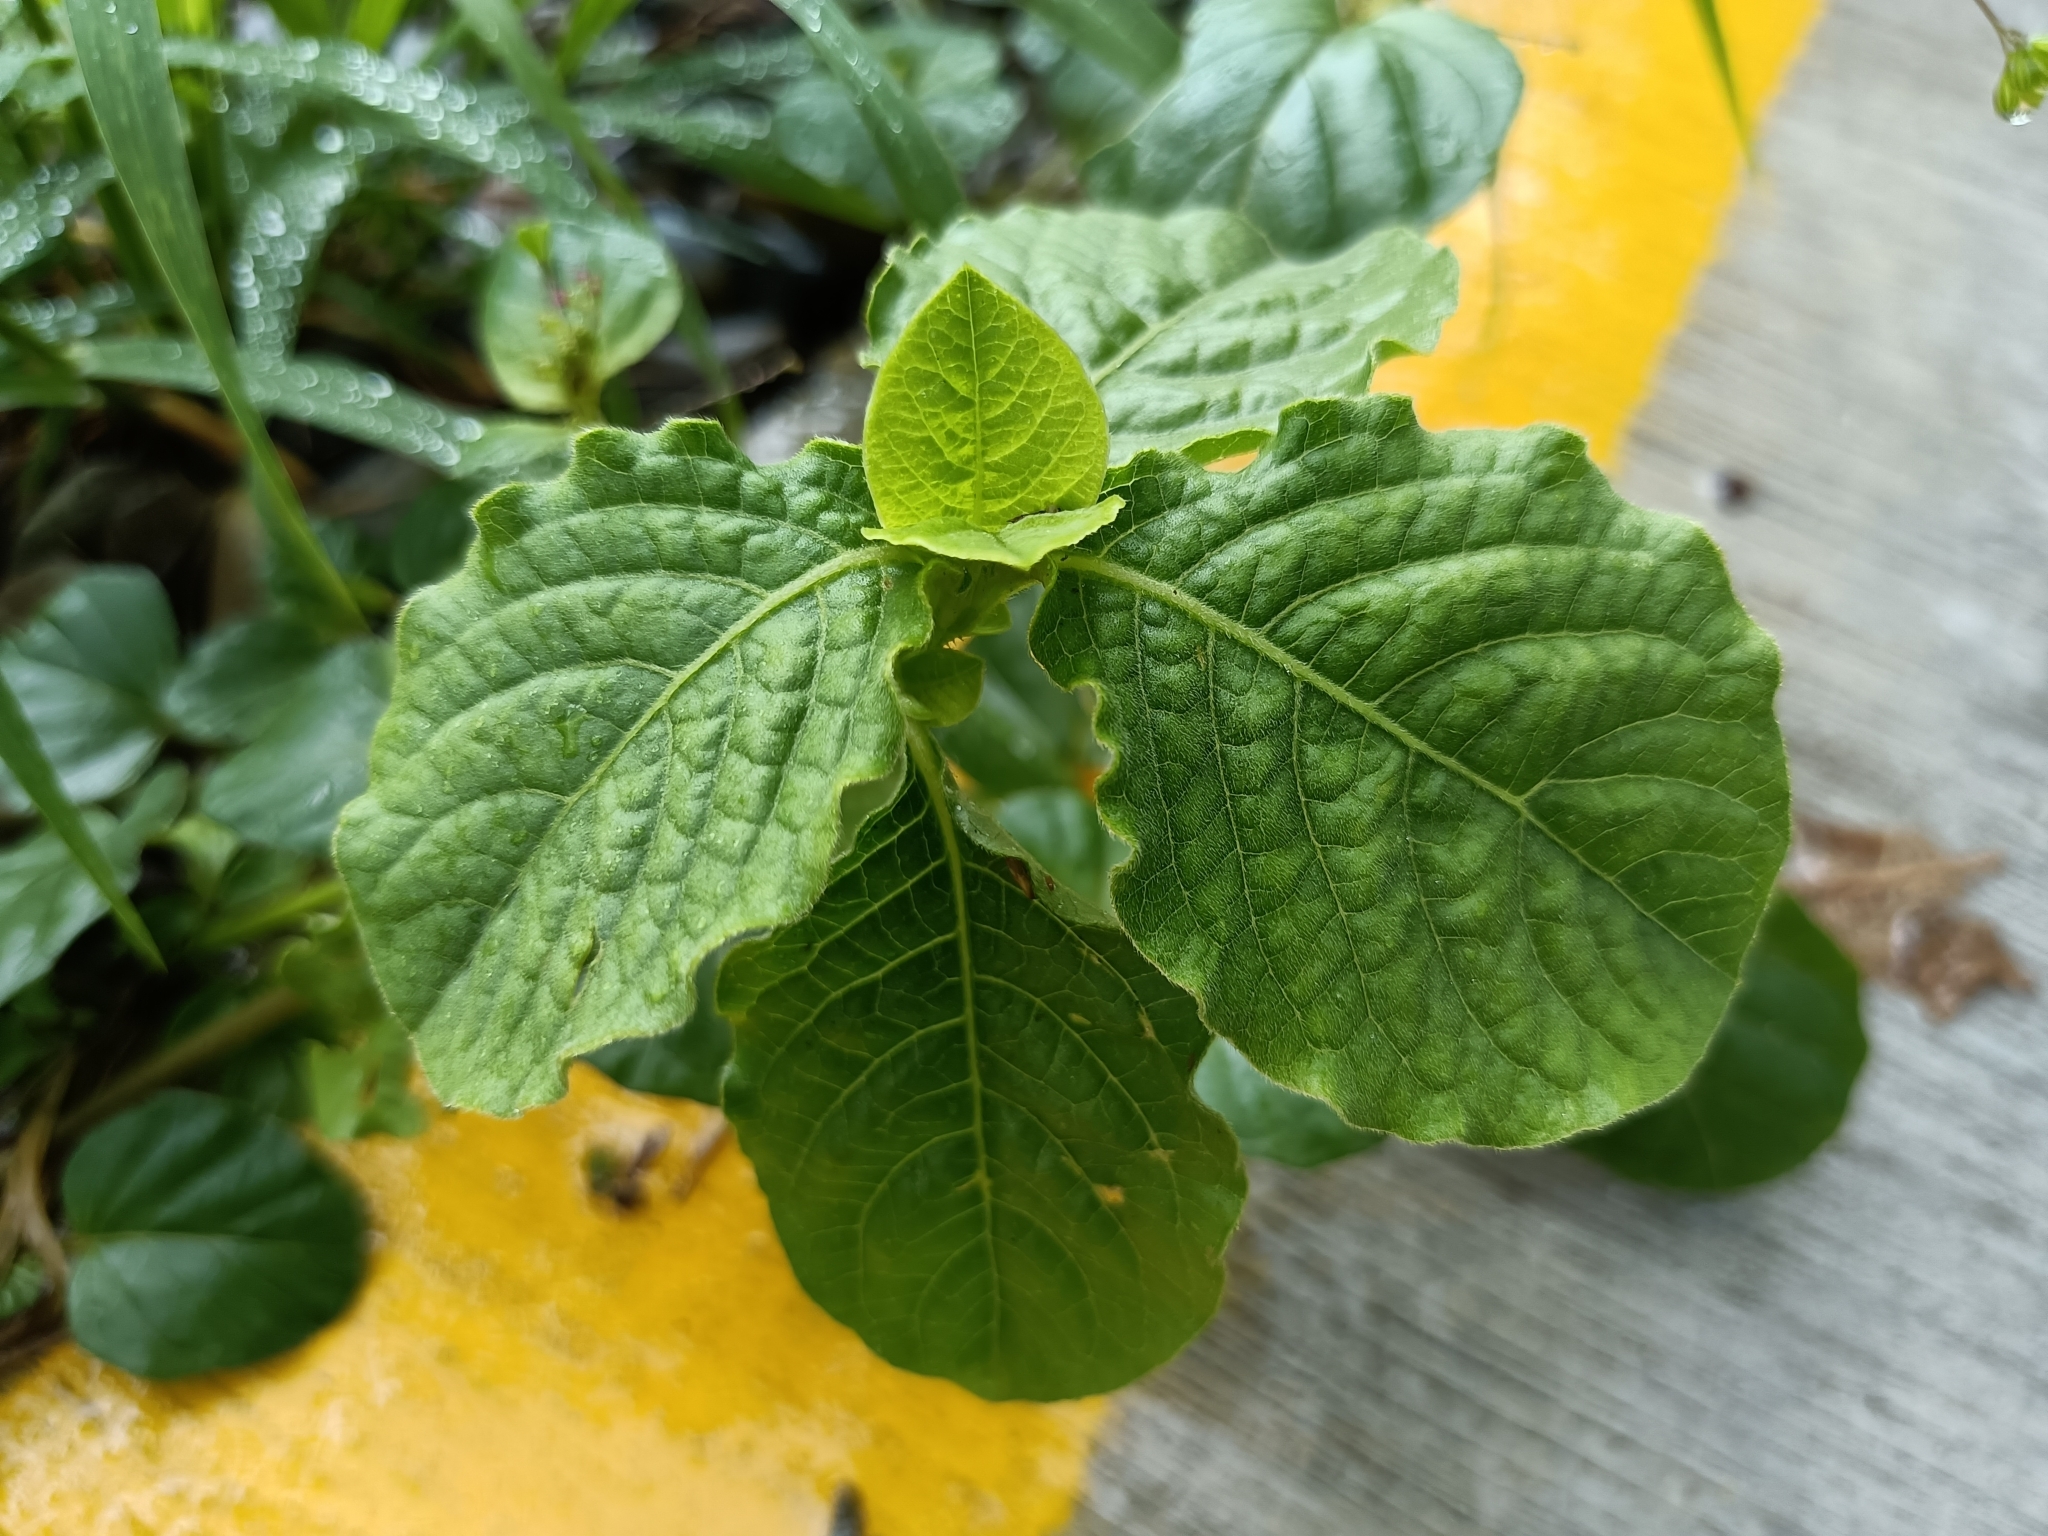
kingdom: Plantae
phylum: Tracheophyta
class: Magnoliopsida
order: Caryophyllales
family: Amaranthaceae
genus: Achyranthes
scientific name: Achyranthes aspera
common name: Devil's horsewhip
